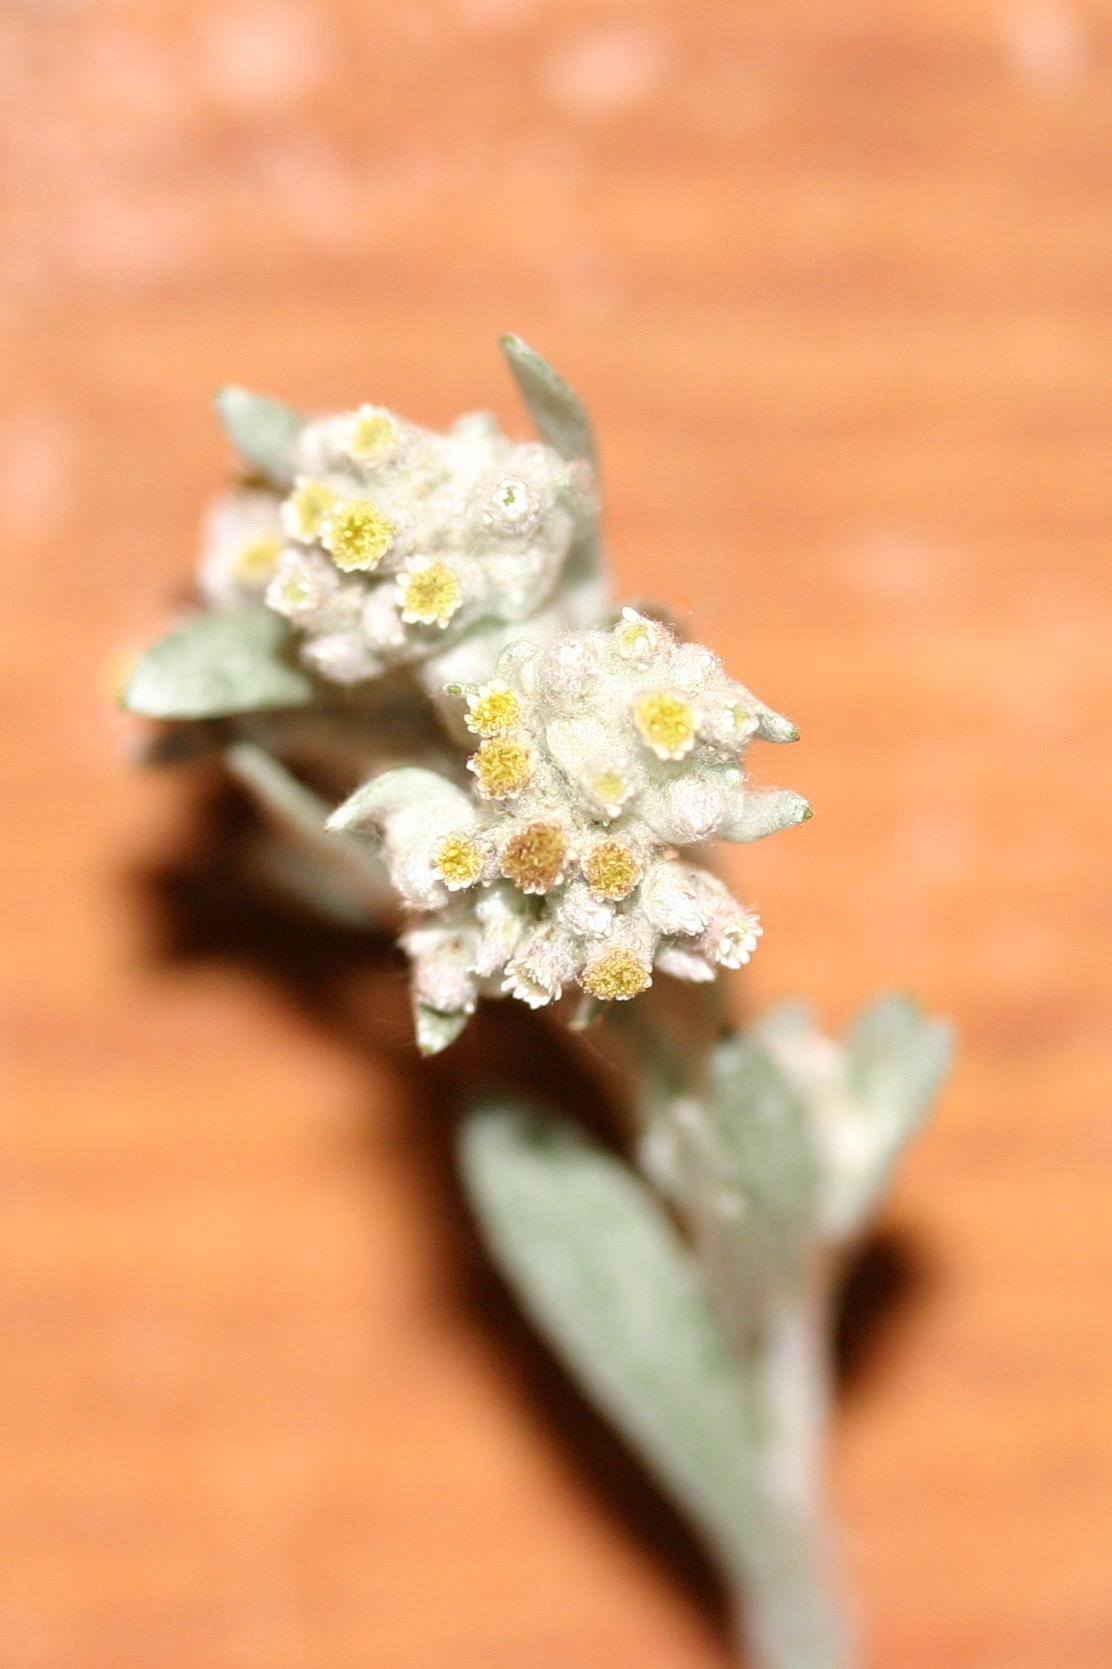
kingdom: Plantae
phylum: Tracheophyta
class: Magnoliopsida
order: Asterales
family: Asteraceae
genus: Vellereophyton
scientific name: Vellereophyton dealbatum
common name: White-cudweed
